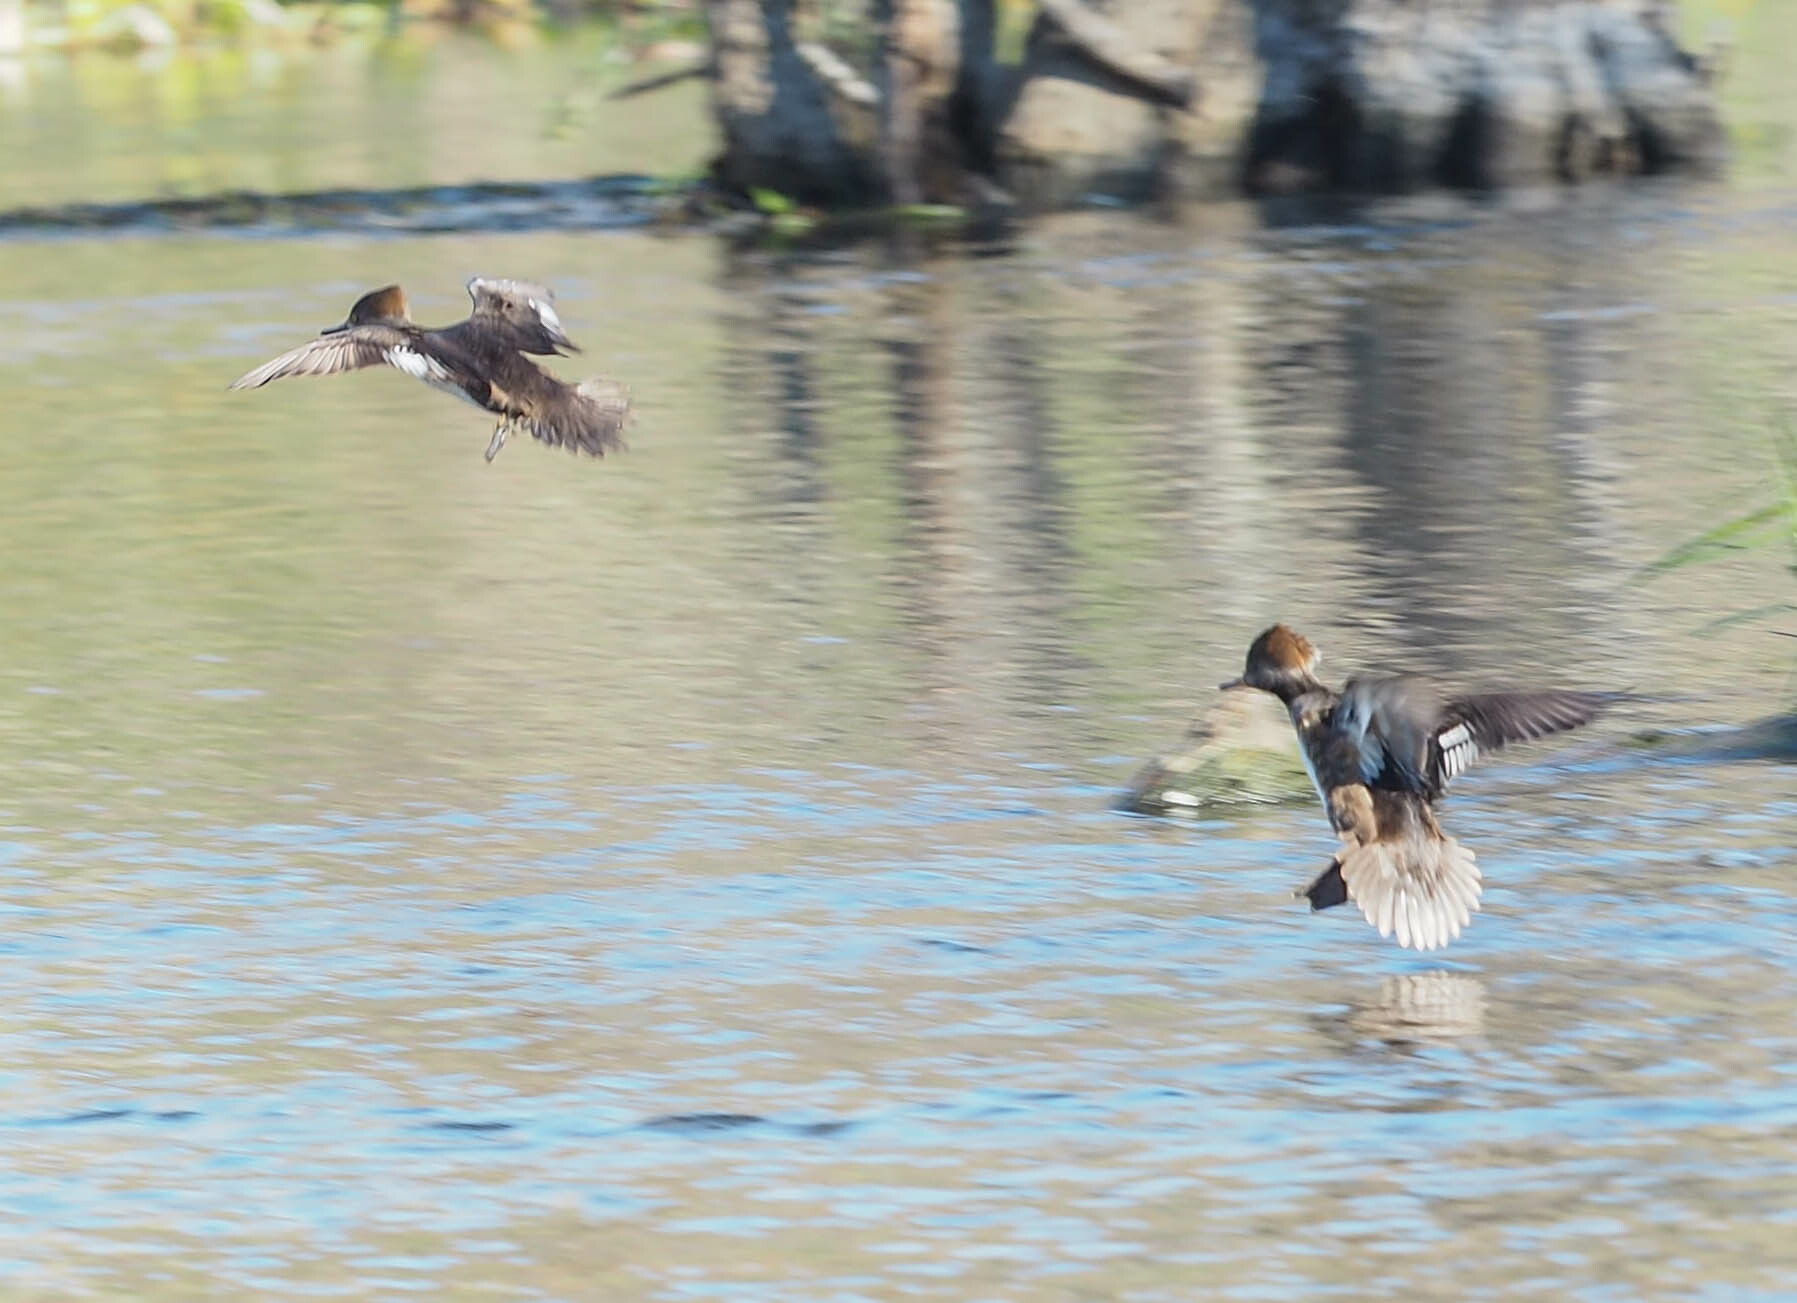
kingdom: Animalia
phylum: Chordata
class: Aves
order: Anseriformes
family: Anatidae
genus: Lophodytes
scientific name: Lophodytes cucullatus
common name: Hooded merganser
